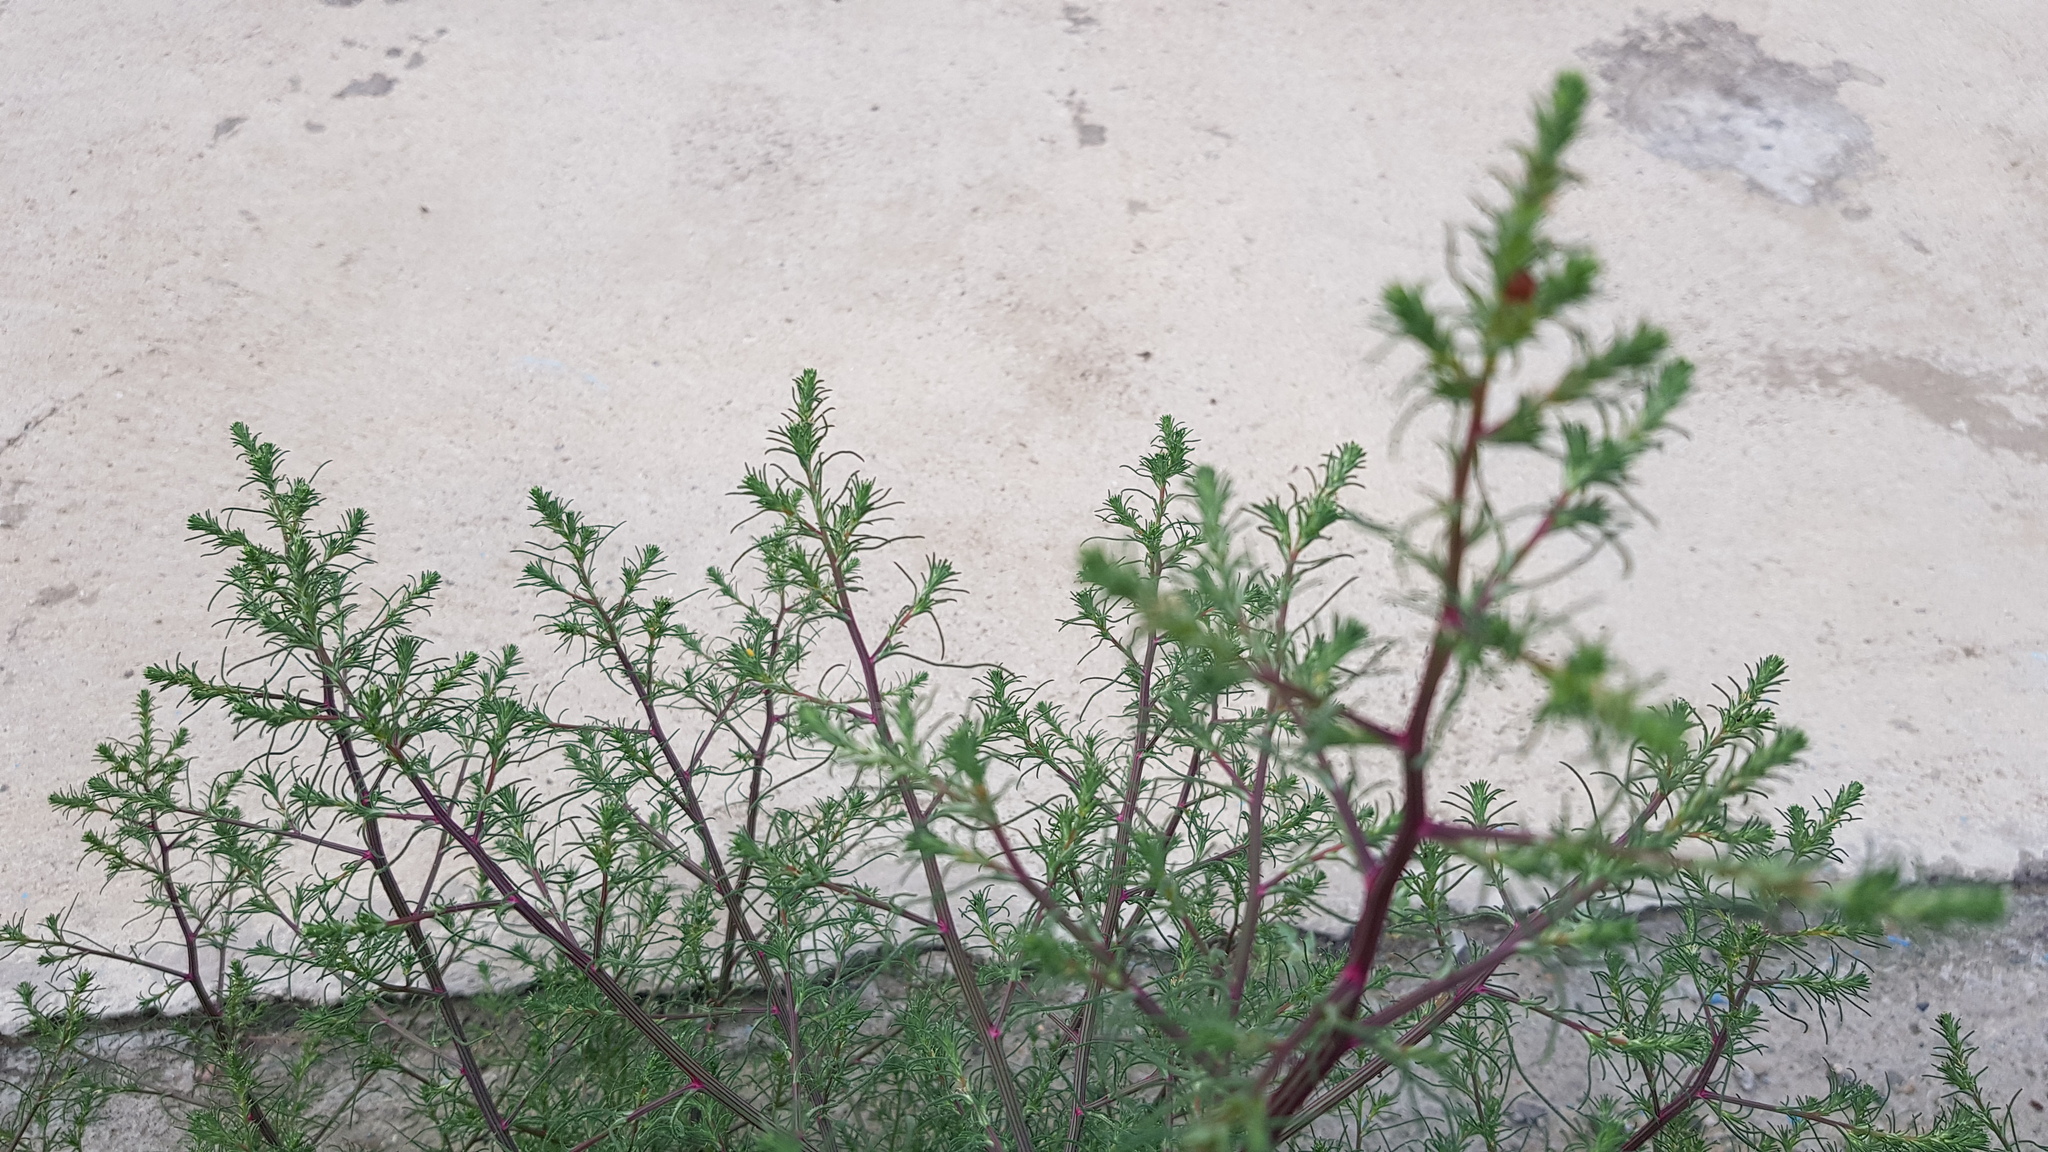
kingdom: Plantae
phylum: Tracheophyta
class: Magnoliopsida
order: Caryophyllales
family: Amaranthaceae
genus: Salsola
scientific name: Salsola collina
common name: Tumbleweed
